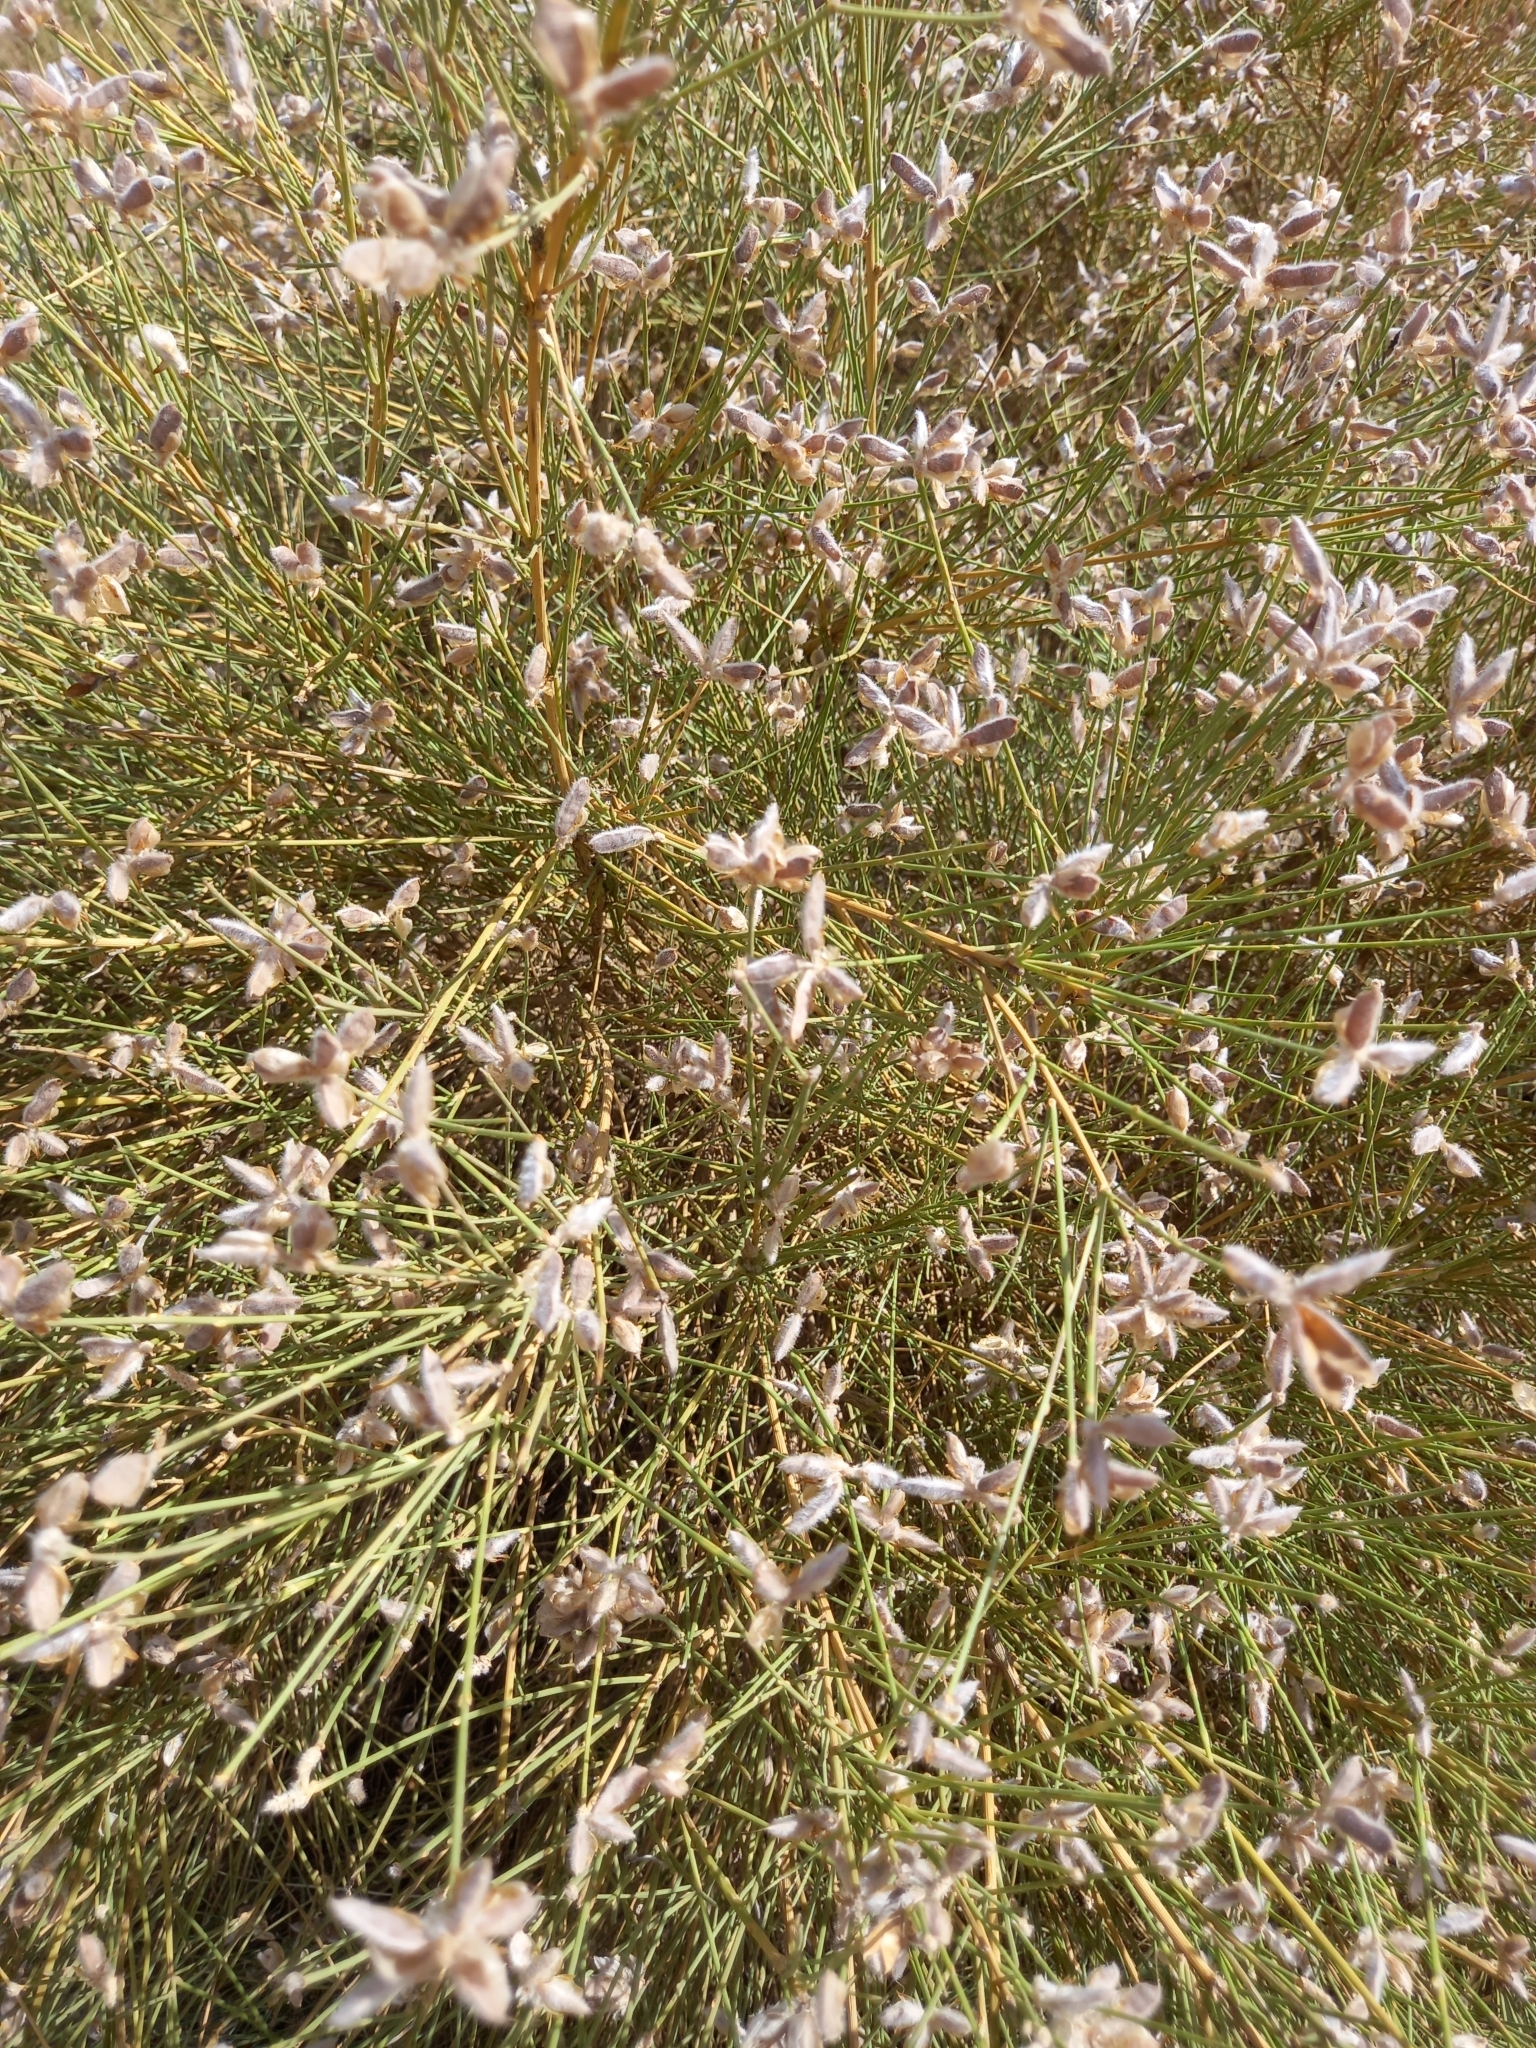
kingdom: Plantae
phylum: Tracheophyta
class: Magnoliopsida
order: Fabales
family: Fabaceae
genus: Genista
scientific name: Genista umbellata
